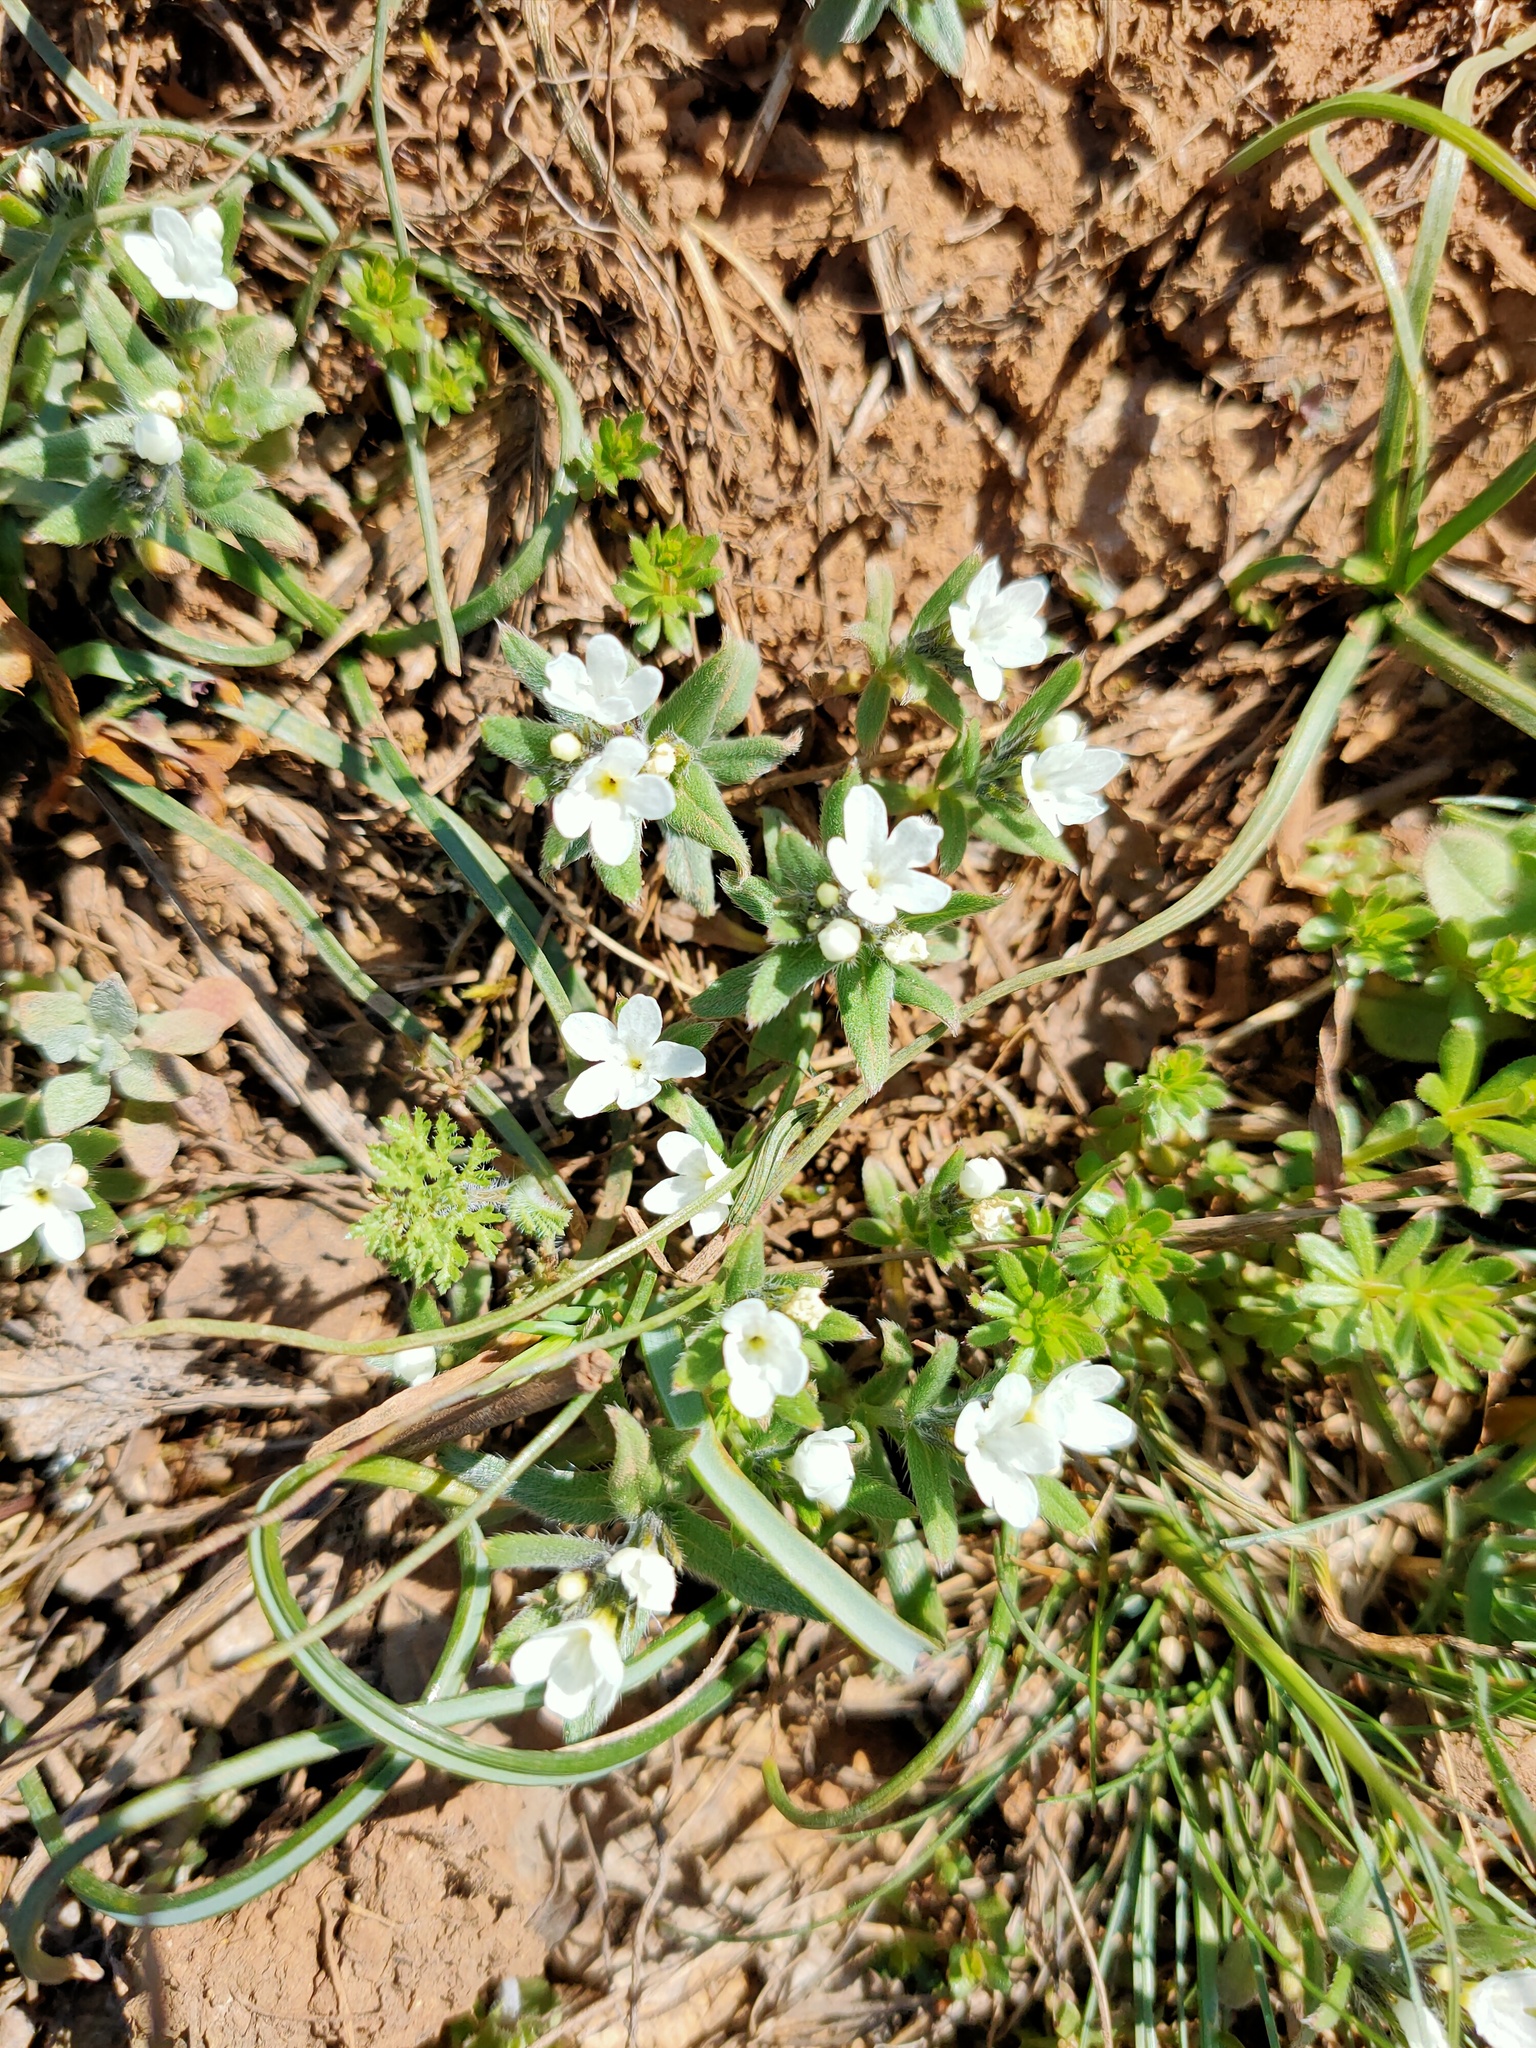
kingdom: Plantae
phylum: Tracheophyta
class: Magnoliopsida
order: Boraginales
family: Boraginaceae
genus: Buglossoides
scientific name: Buglossoides arvensis
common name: Corn gromwell
